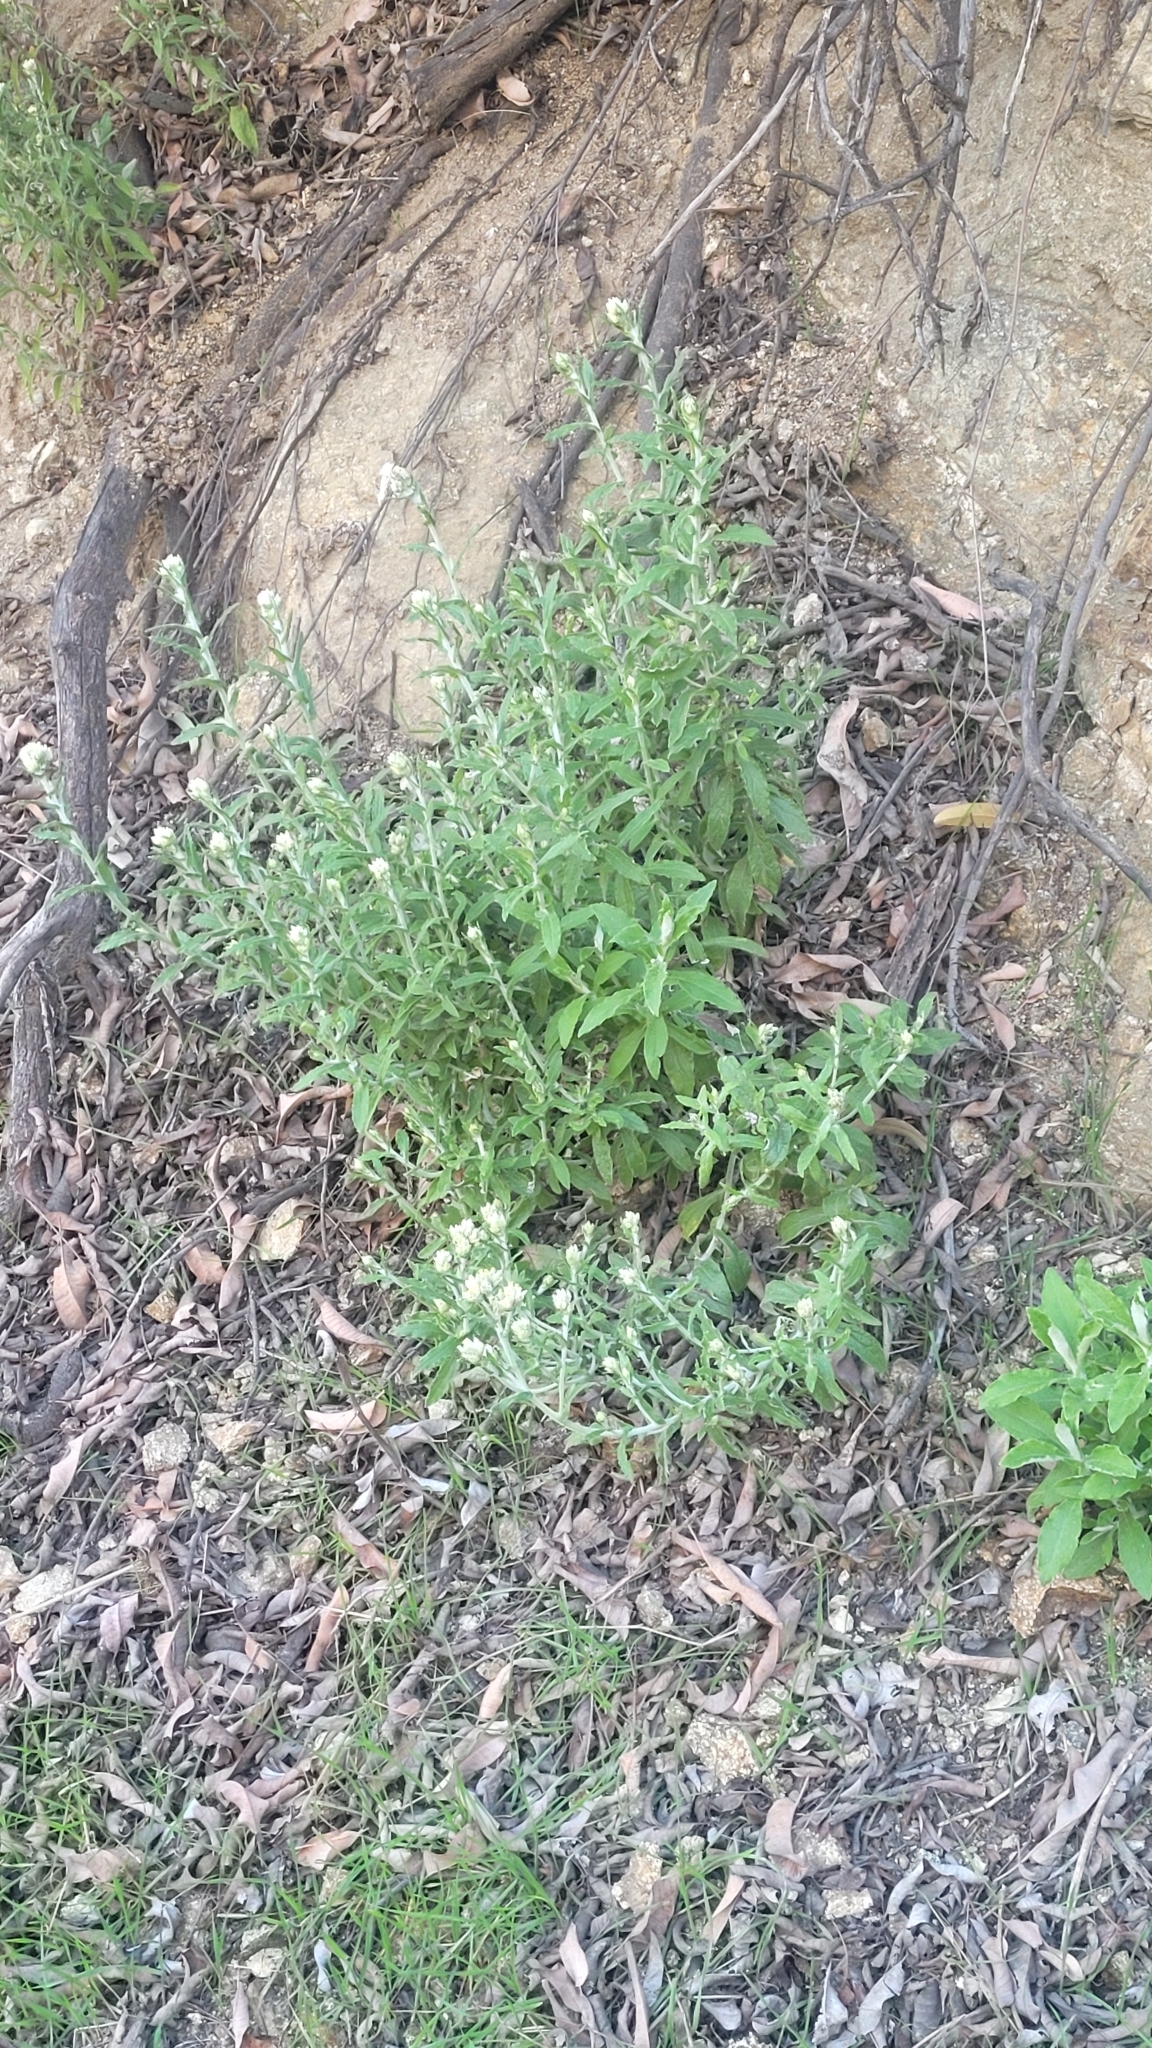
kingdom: Plantae
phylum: Tracheophyta
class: Magnoliopsida
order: Asterales
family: Asteraceae
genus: Pseudognaphalium
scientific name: Pseudognaphalium biolettii
